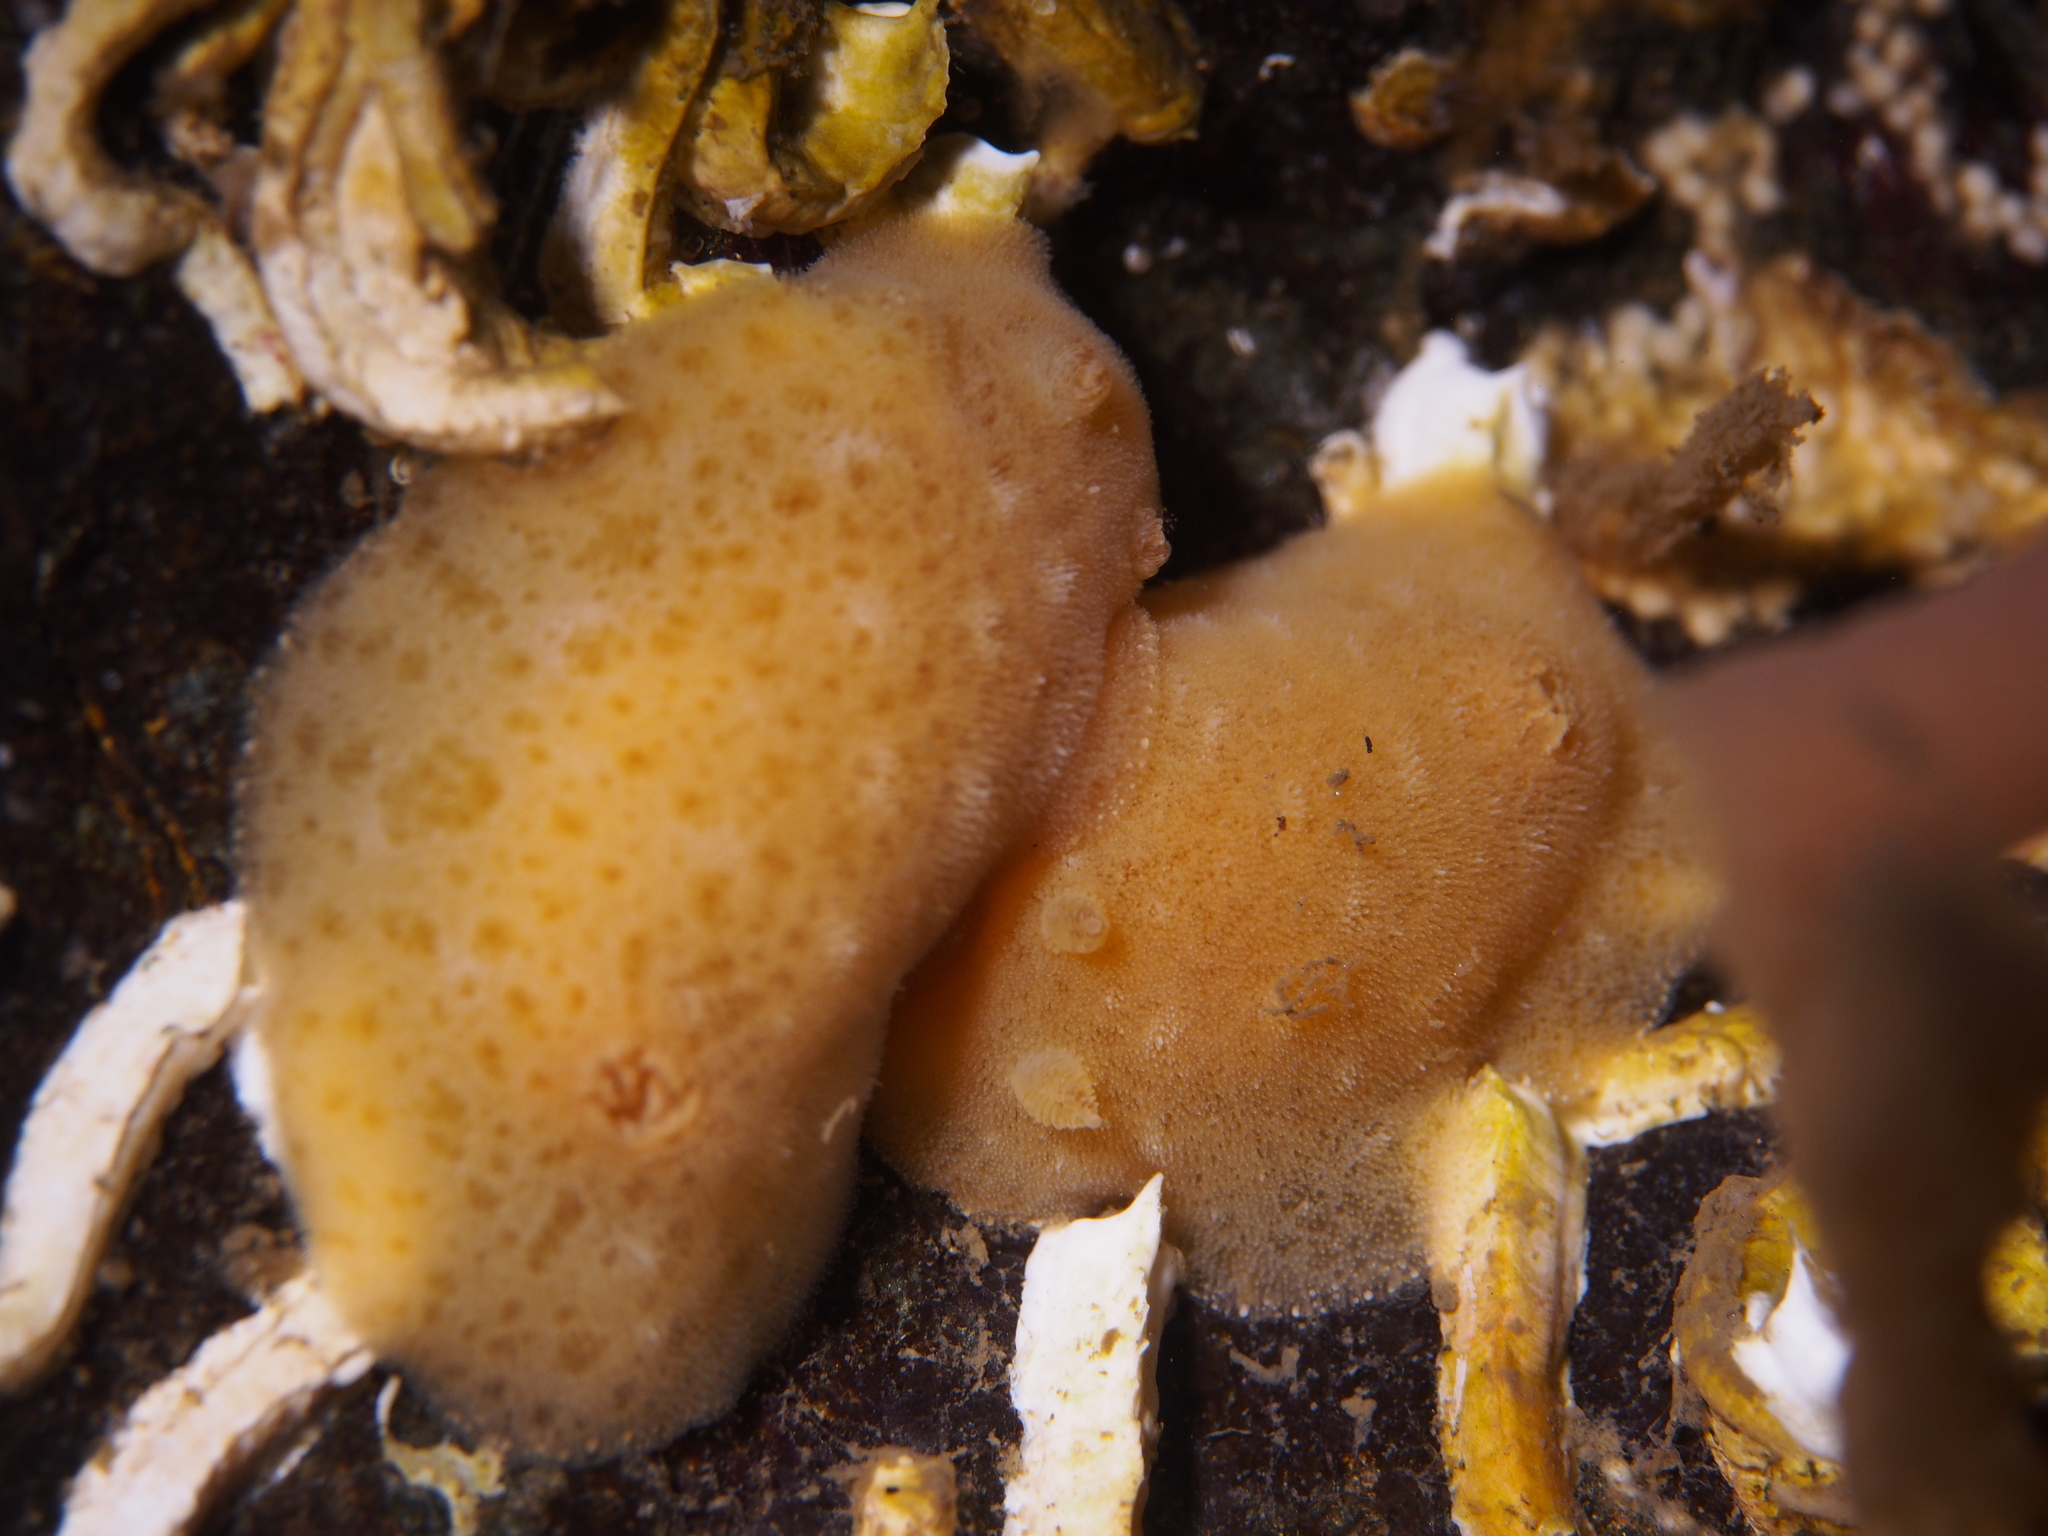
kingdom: Animalia
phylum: Mollusca
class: Gastropoda
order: Nudibranchia
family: Discodorididae
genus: Jorunna
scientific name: Jorunna tomentosa
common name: Grey sea slug
